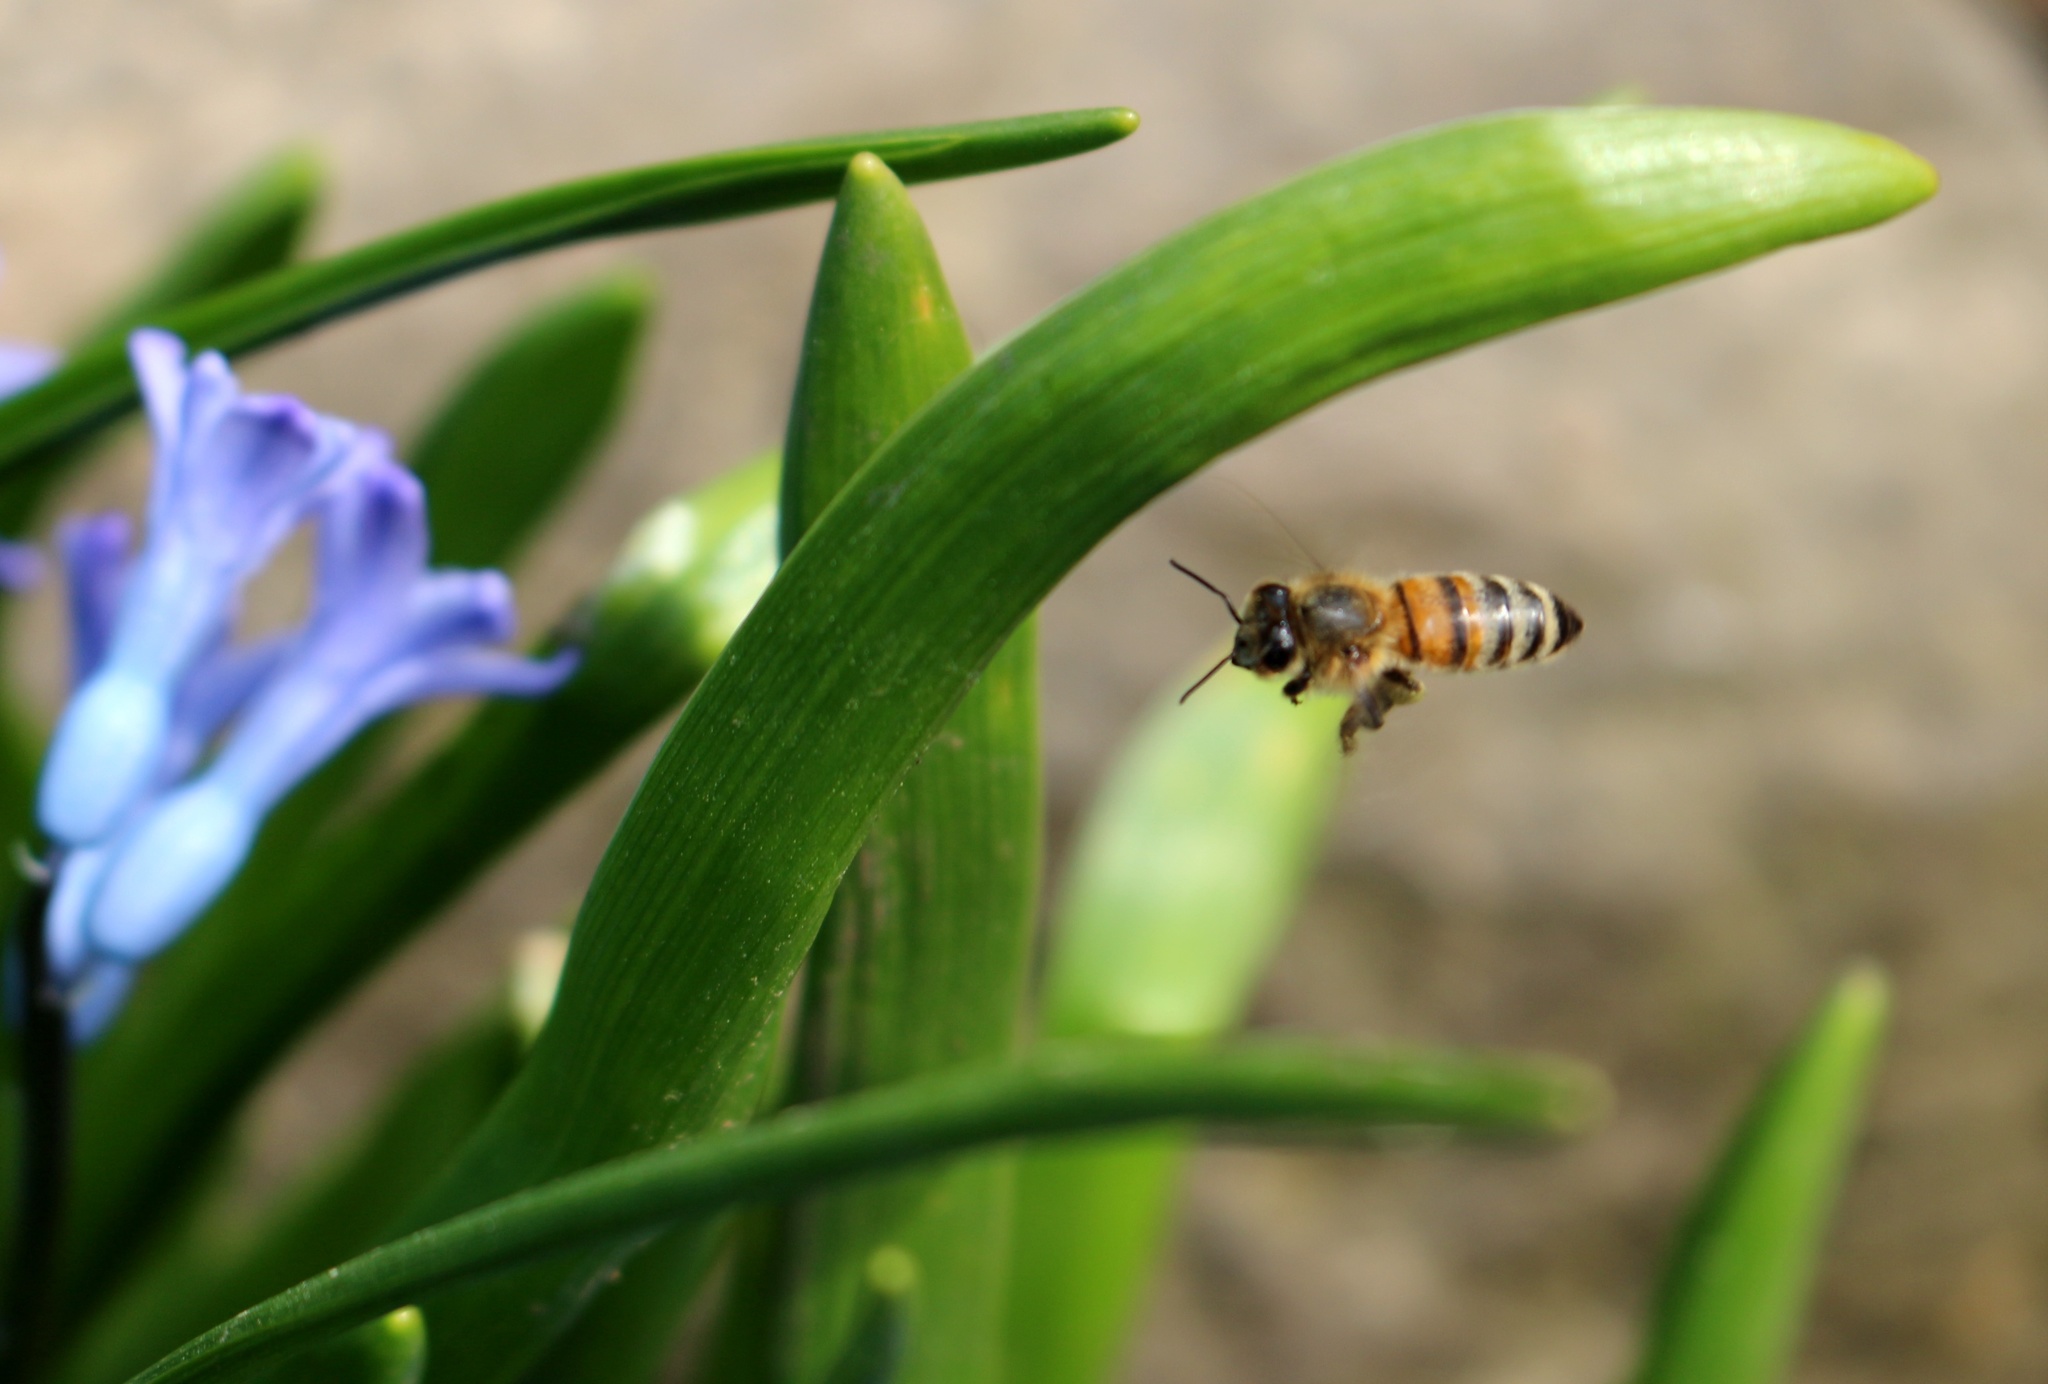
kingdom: Animalia
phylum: Arthropoda
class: Insecta
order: Hymenoptera
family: Apidae
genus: Apis
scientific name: Apis mellifera
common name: Honey bee
